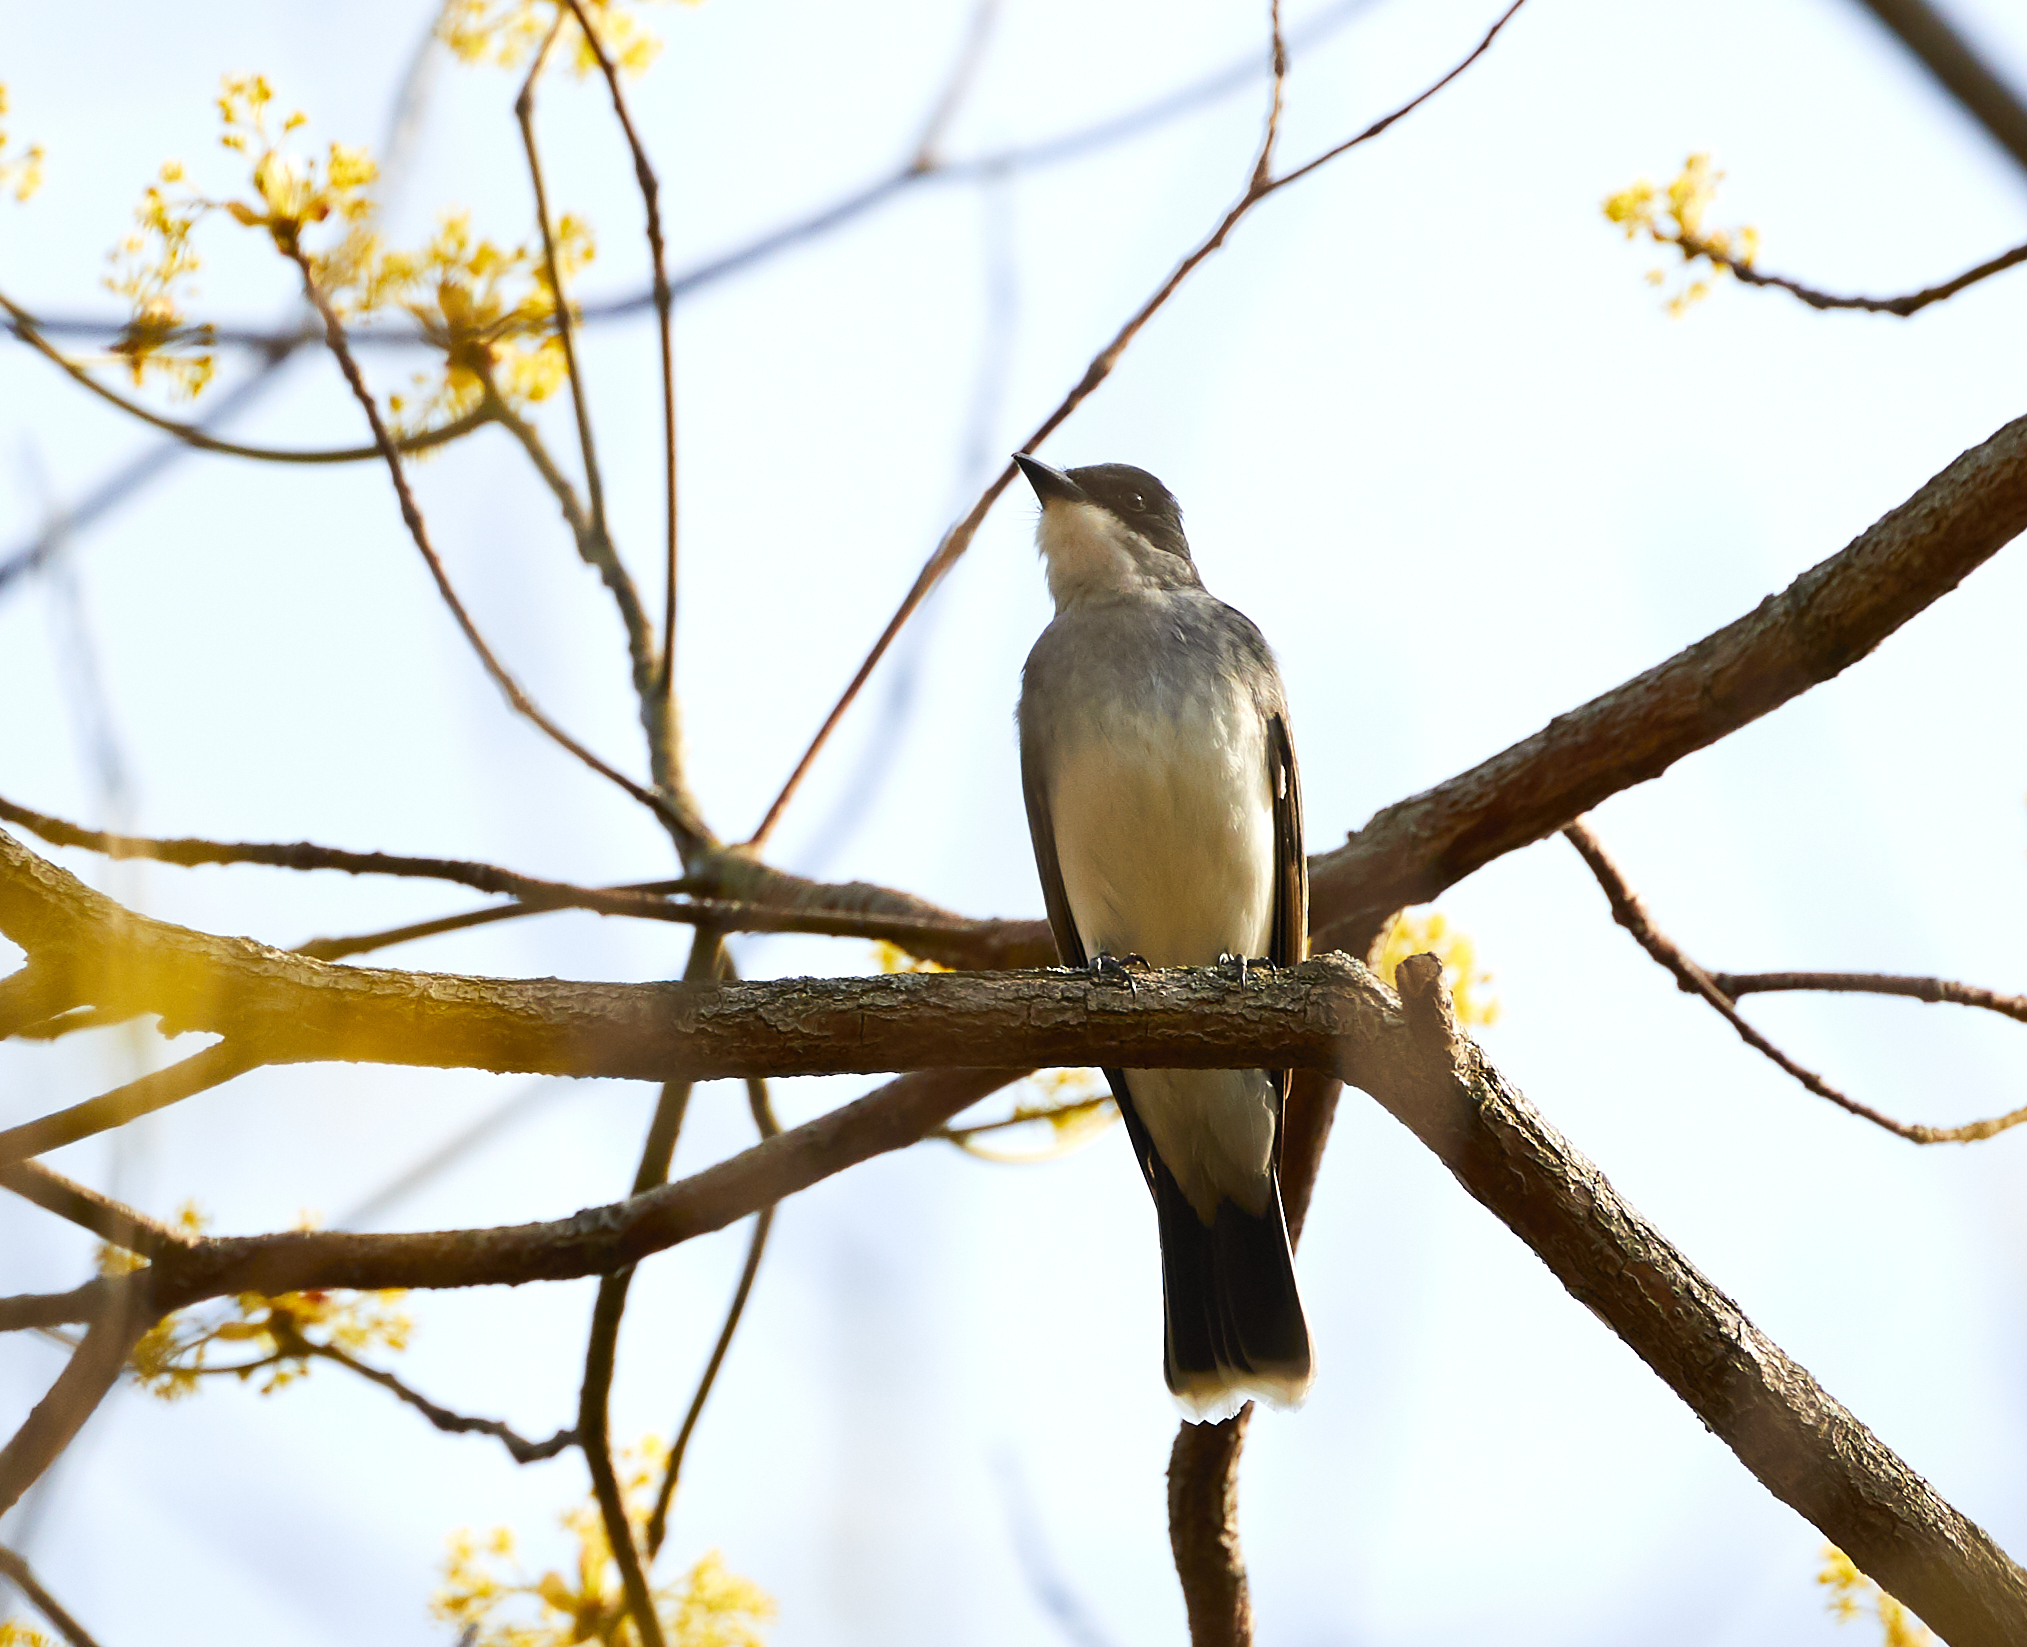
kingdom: Animalia
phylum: Chordata
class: Aves
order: Passeriformes
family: Tyrannidae
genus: Tyrannus
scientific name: Tyrannus tyrannus
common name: Eastern kingbird
